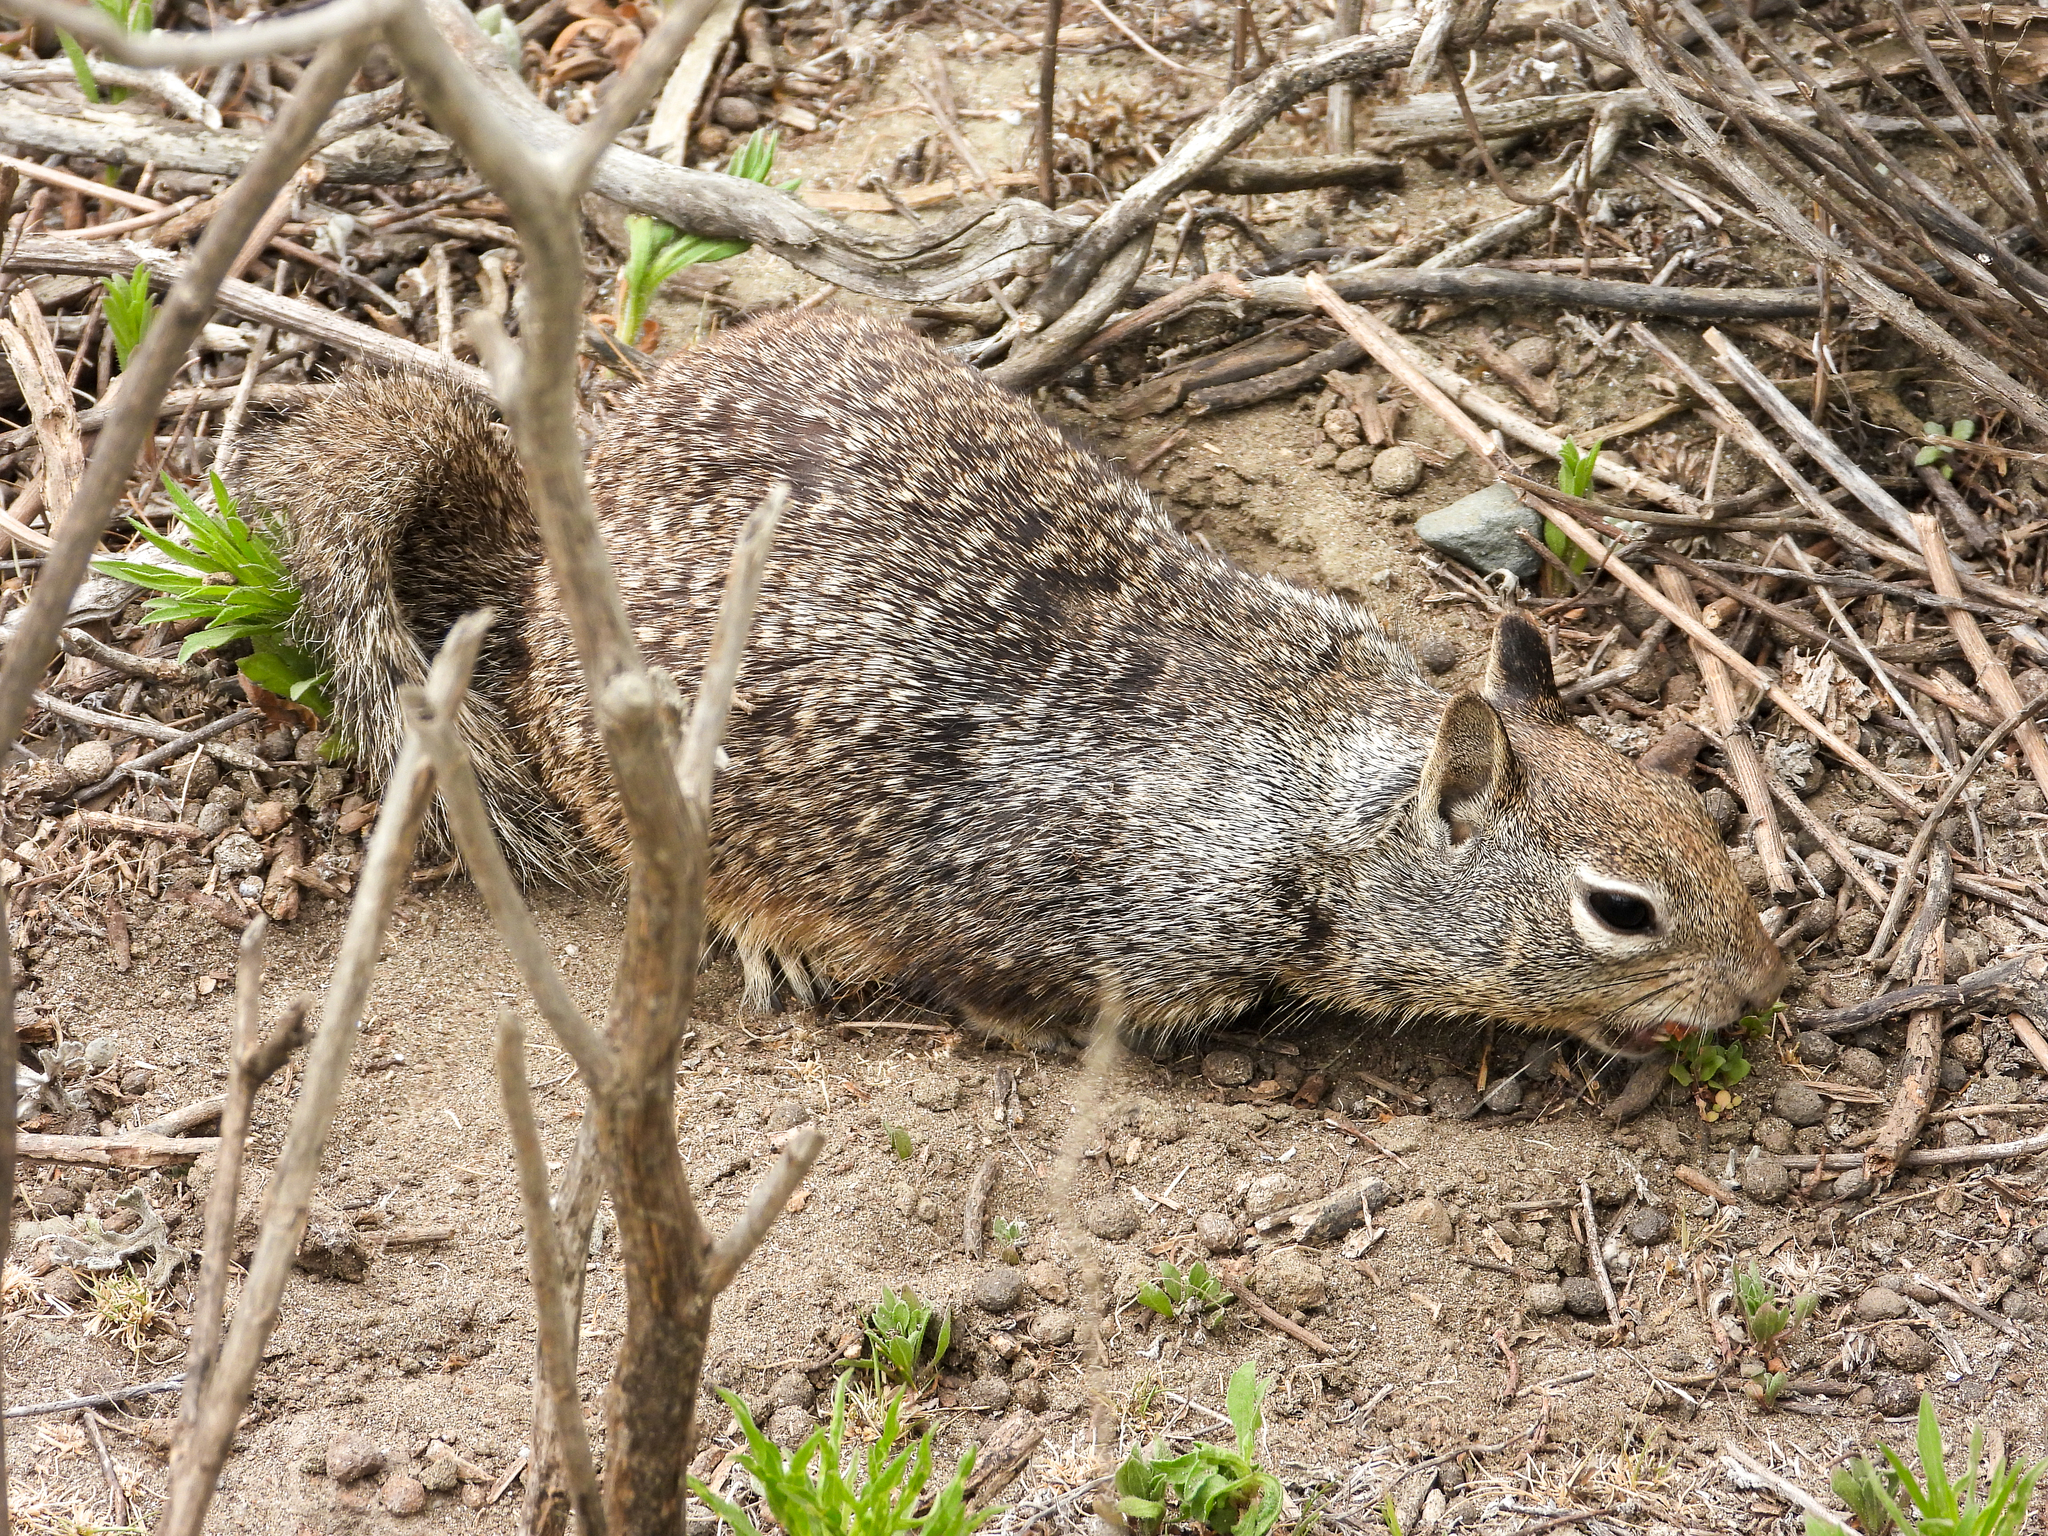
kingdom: Animalia
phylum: Chordata
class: Mammalia
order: Rodentia
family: Sciuridae
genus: Otospermophilus
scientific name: Otospermophilus beecheyi
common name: California ground squirrel
